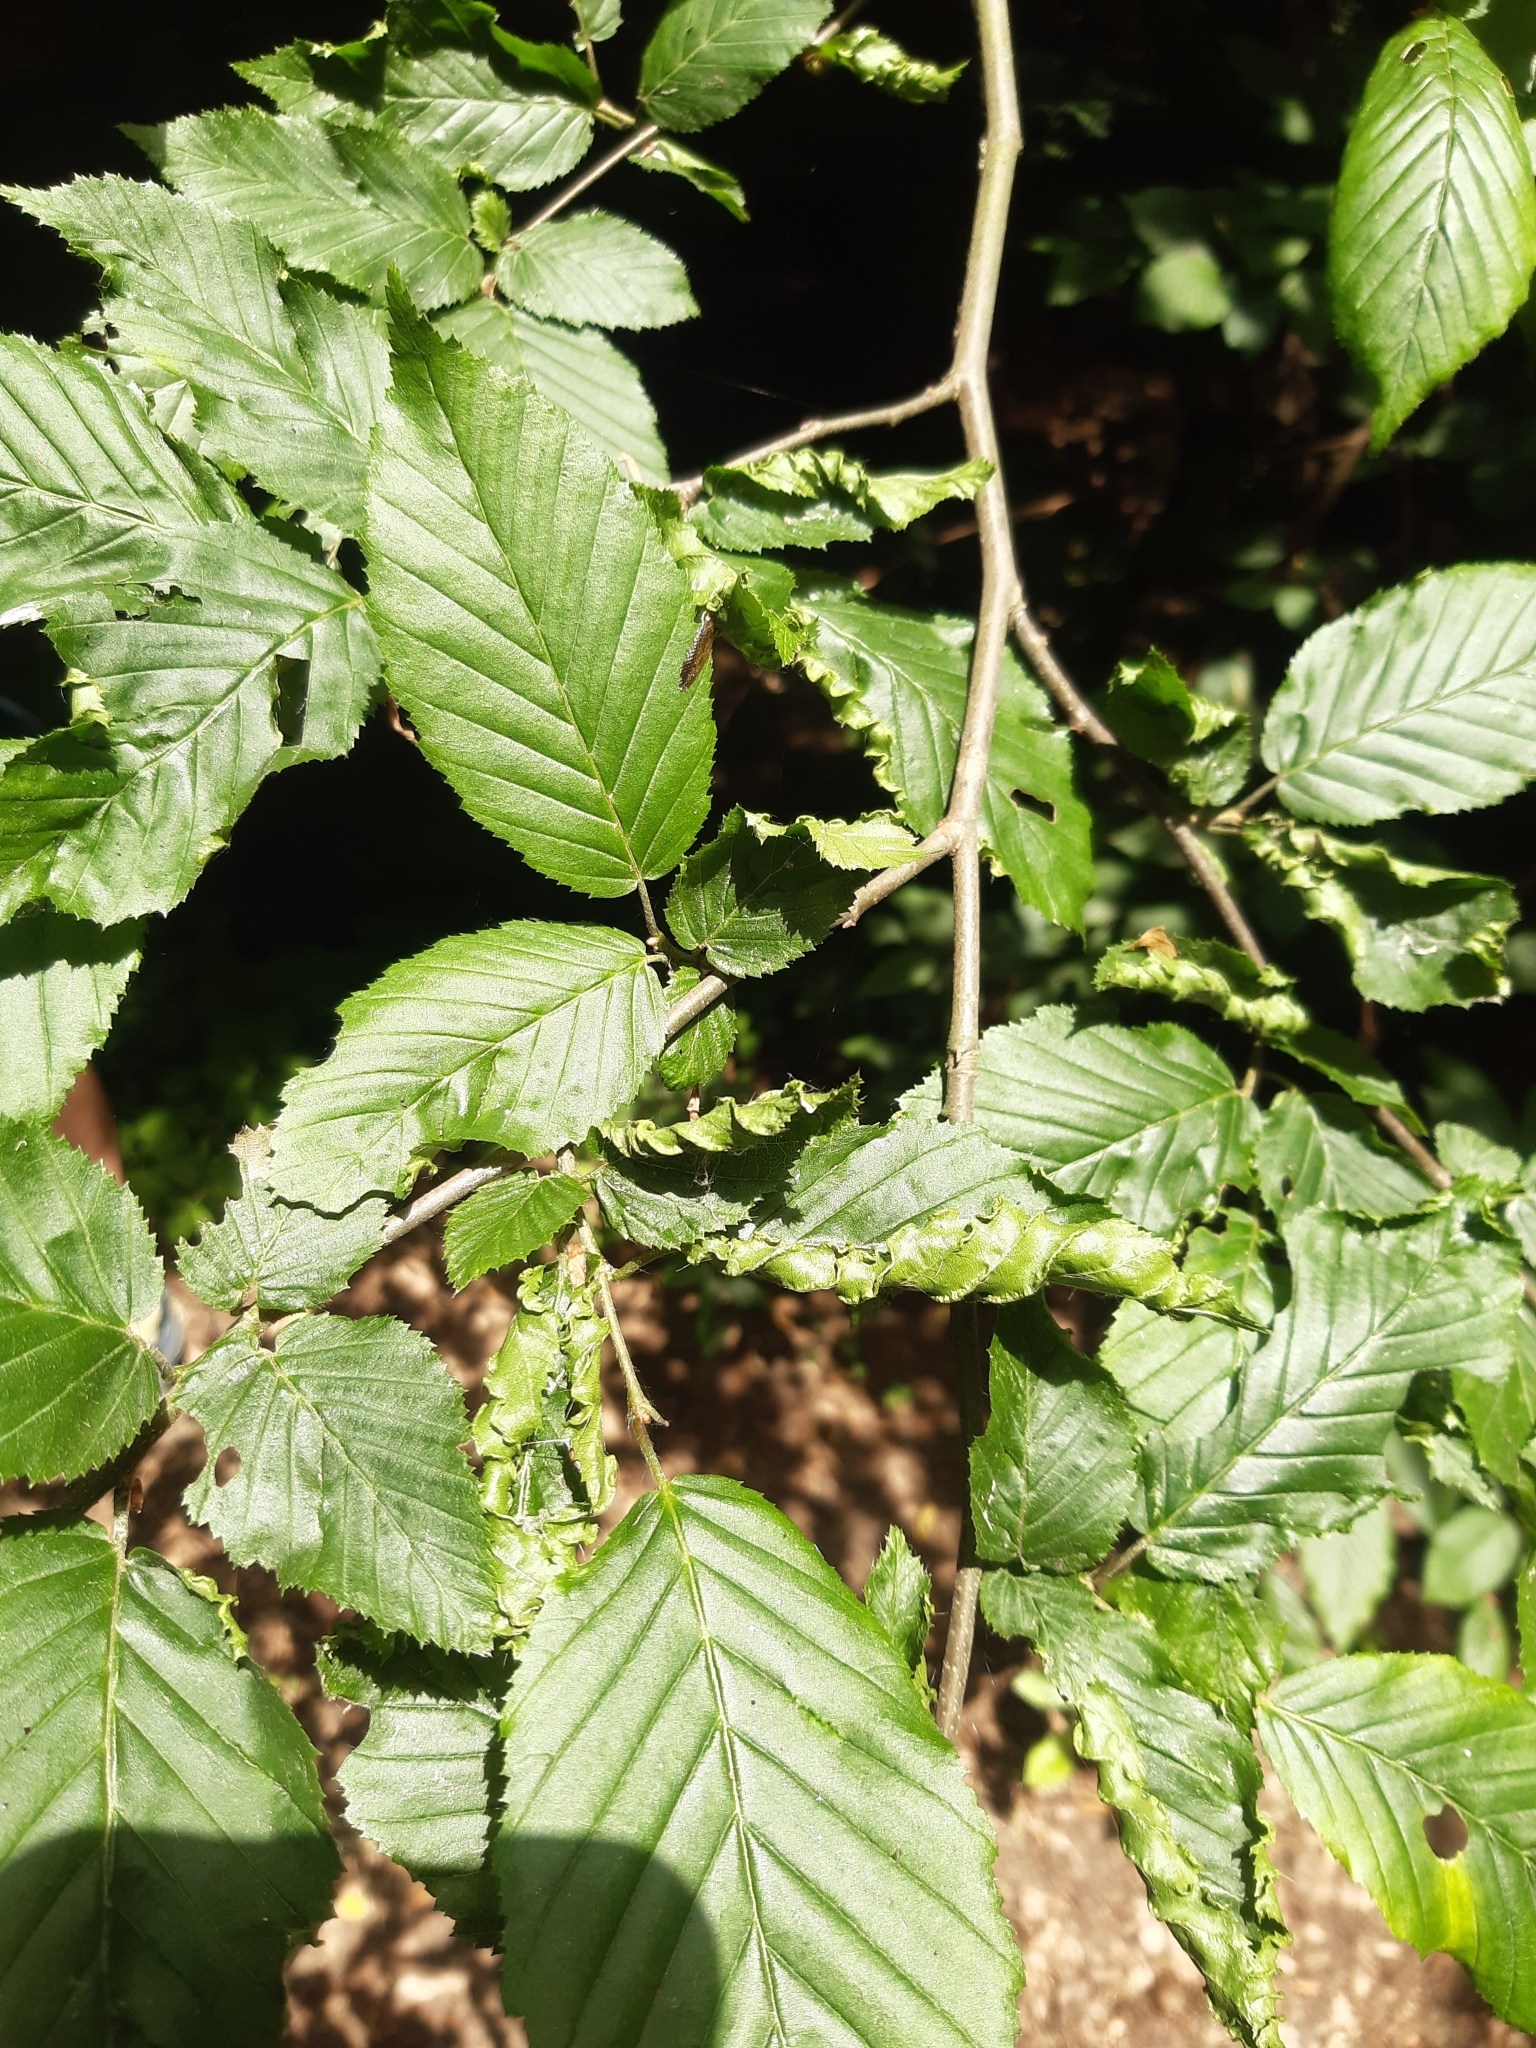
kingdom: Animalia
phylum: Arthropoda
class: Arachnida
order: Trombidiformes
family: Eriophyidae
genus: Aculops
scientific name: Aculops macrotrichus
